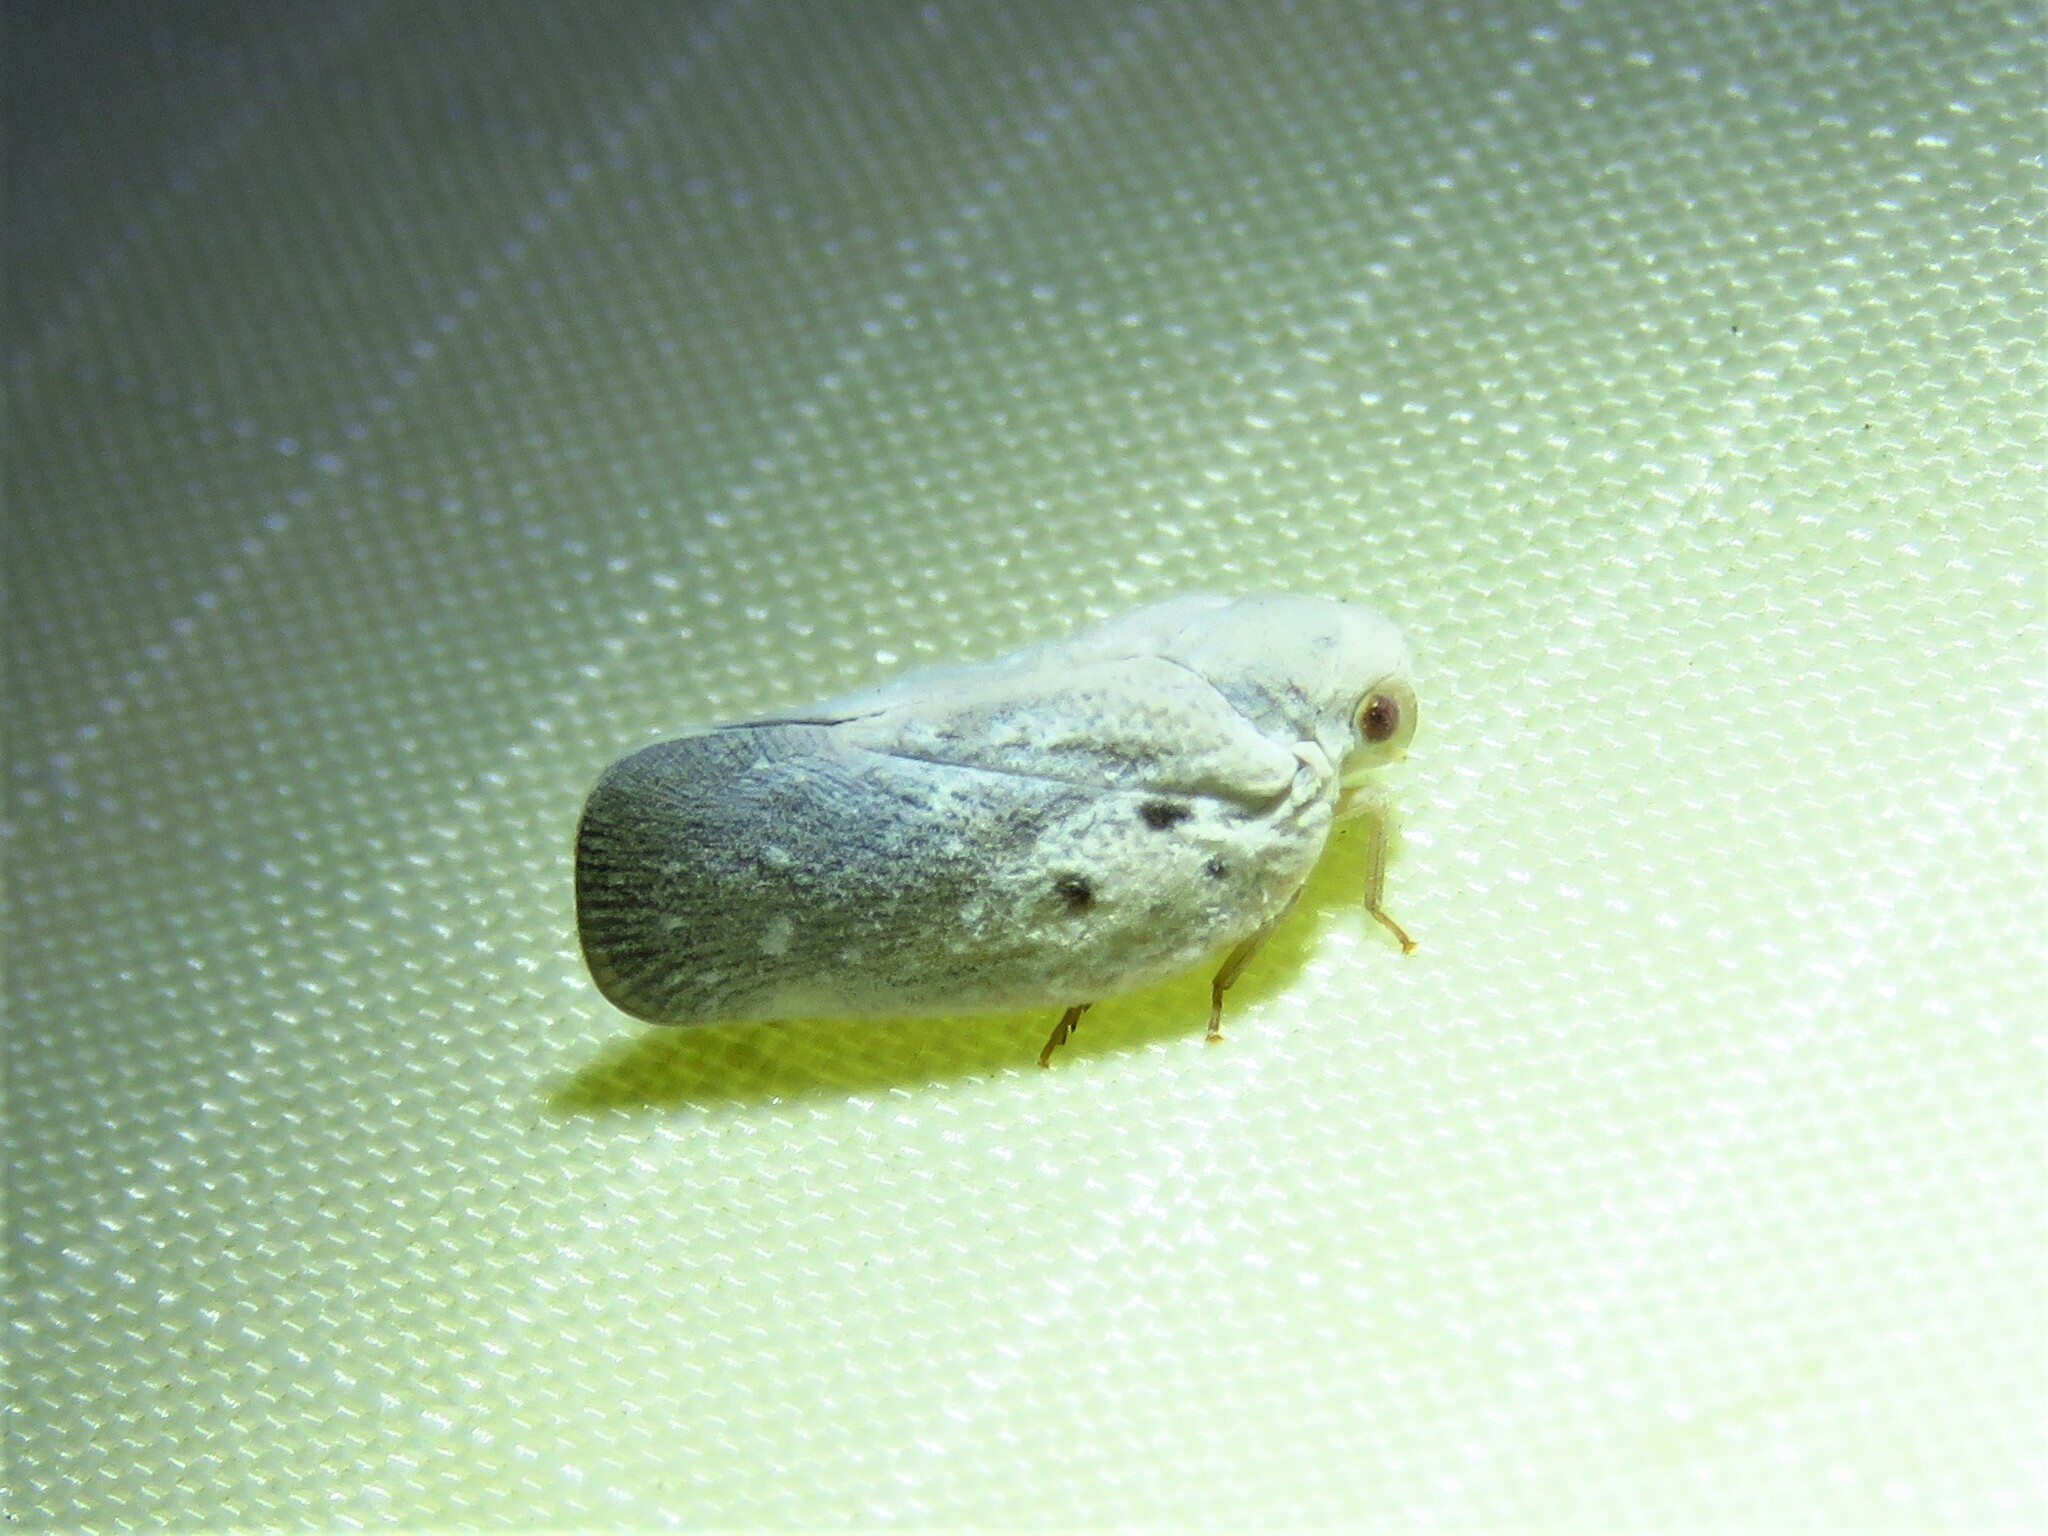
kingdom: Animalia
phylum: Arthropoda
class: Insecta
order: Hemiptera
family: Flatidae
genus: Metcalfa
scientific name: Metcalfa pruinosa
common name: Citrus flatid planthopper
